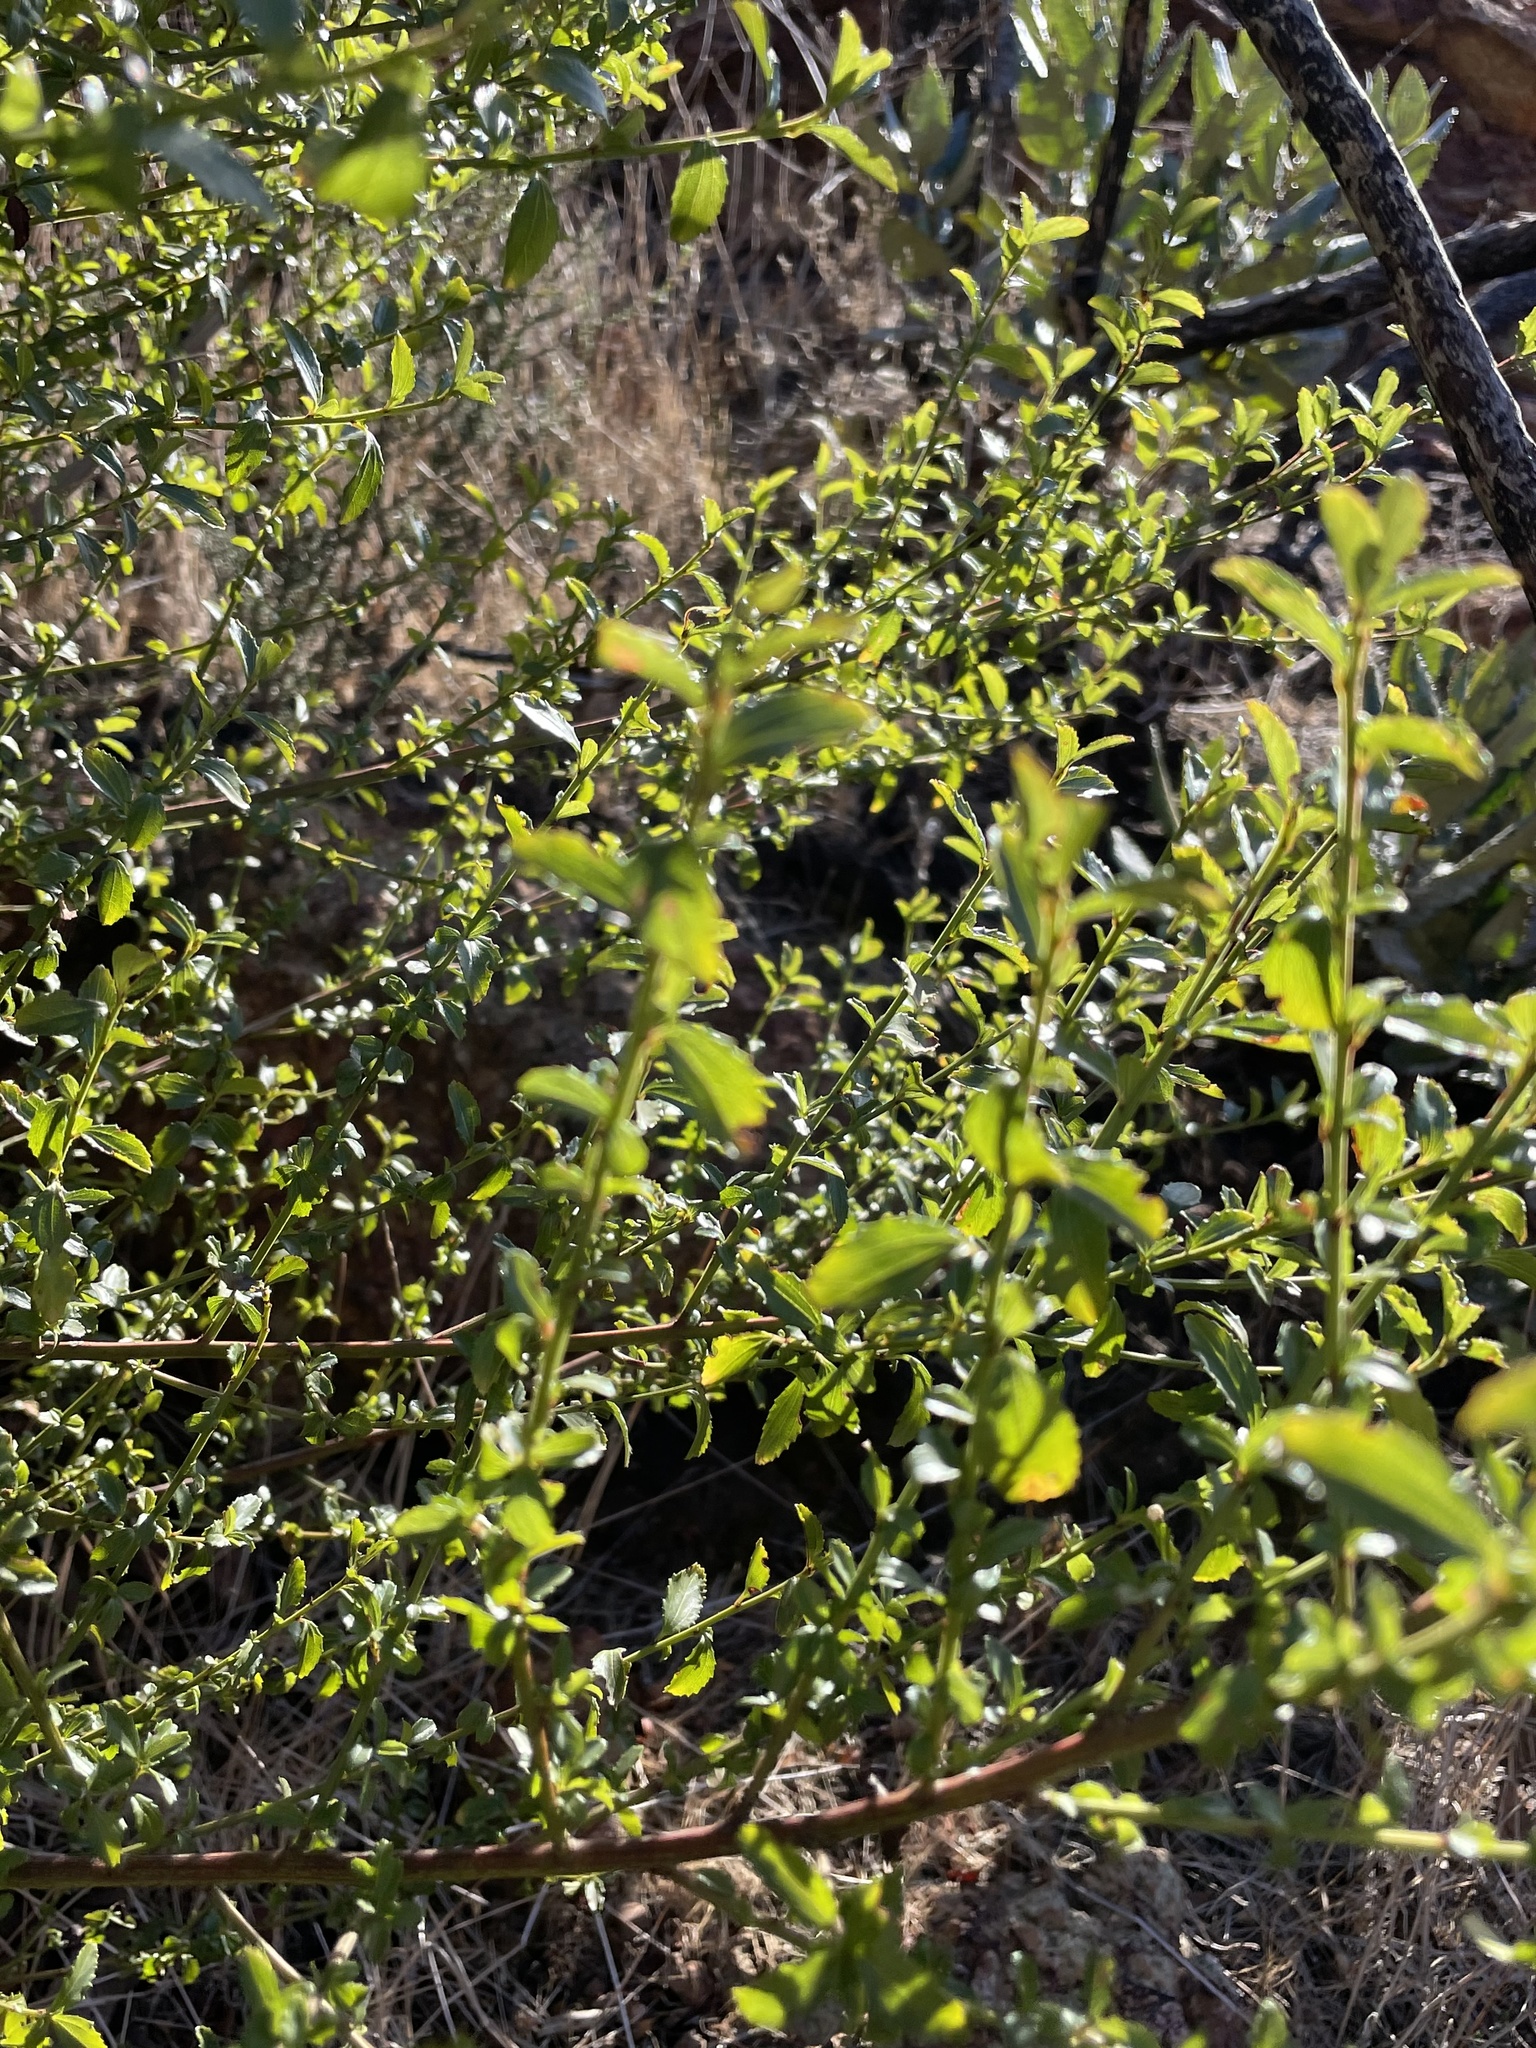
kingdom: Plantae
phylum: Tracheophyta
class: Magnoliopsida
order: Rosales
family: Rhamnaceae
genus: Ceanothus
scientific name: Ceanothus thyrsiflorus
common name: California-lilac
